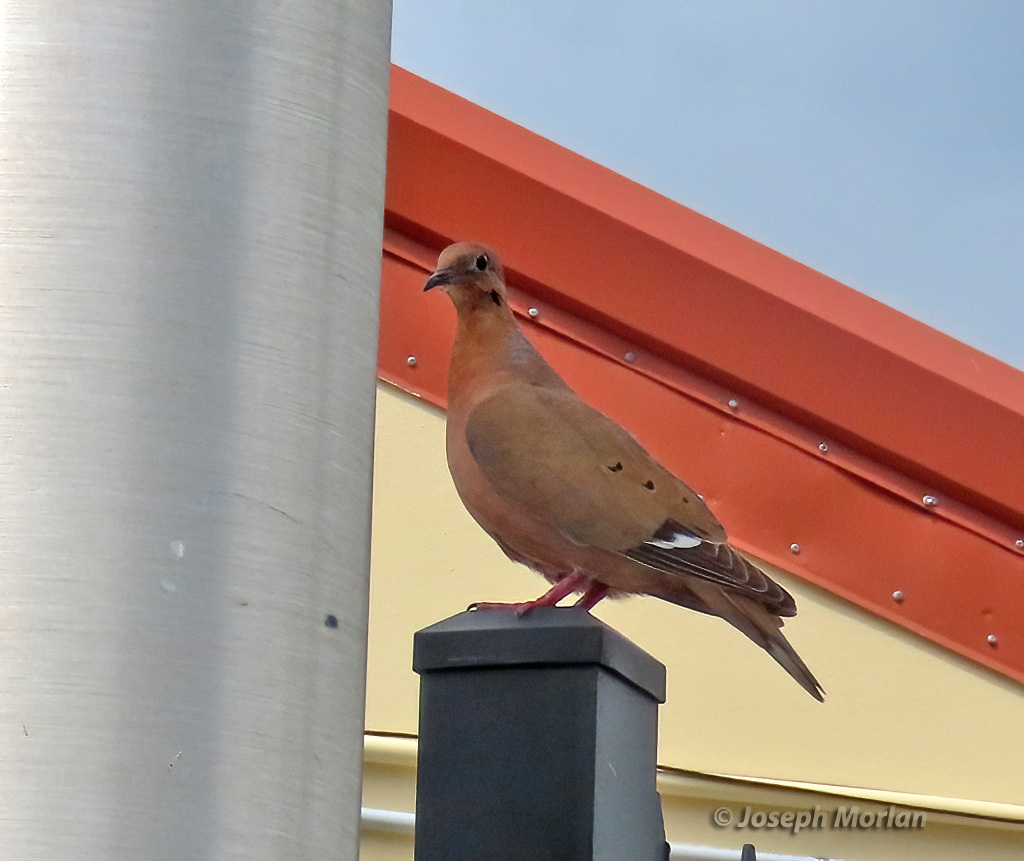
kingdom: Animalia
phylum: Chordata
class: Aves
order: Columbiformes
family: Columbidae
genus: Zenaida
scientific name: Zenaida aurita
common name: Zenaida dove
